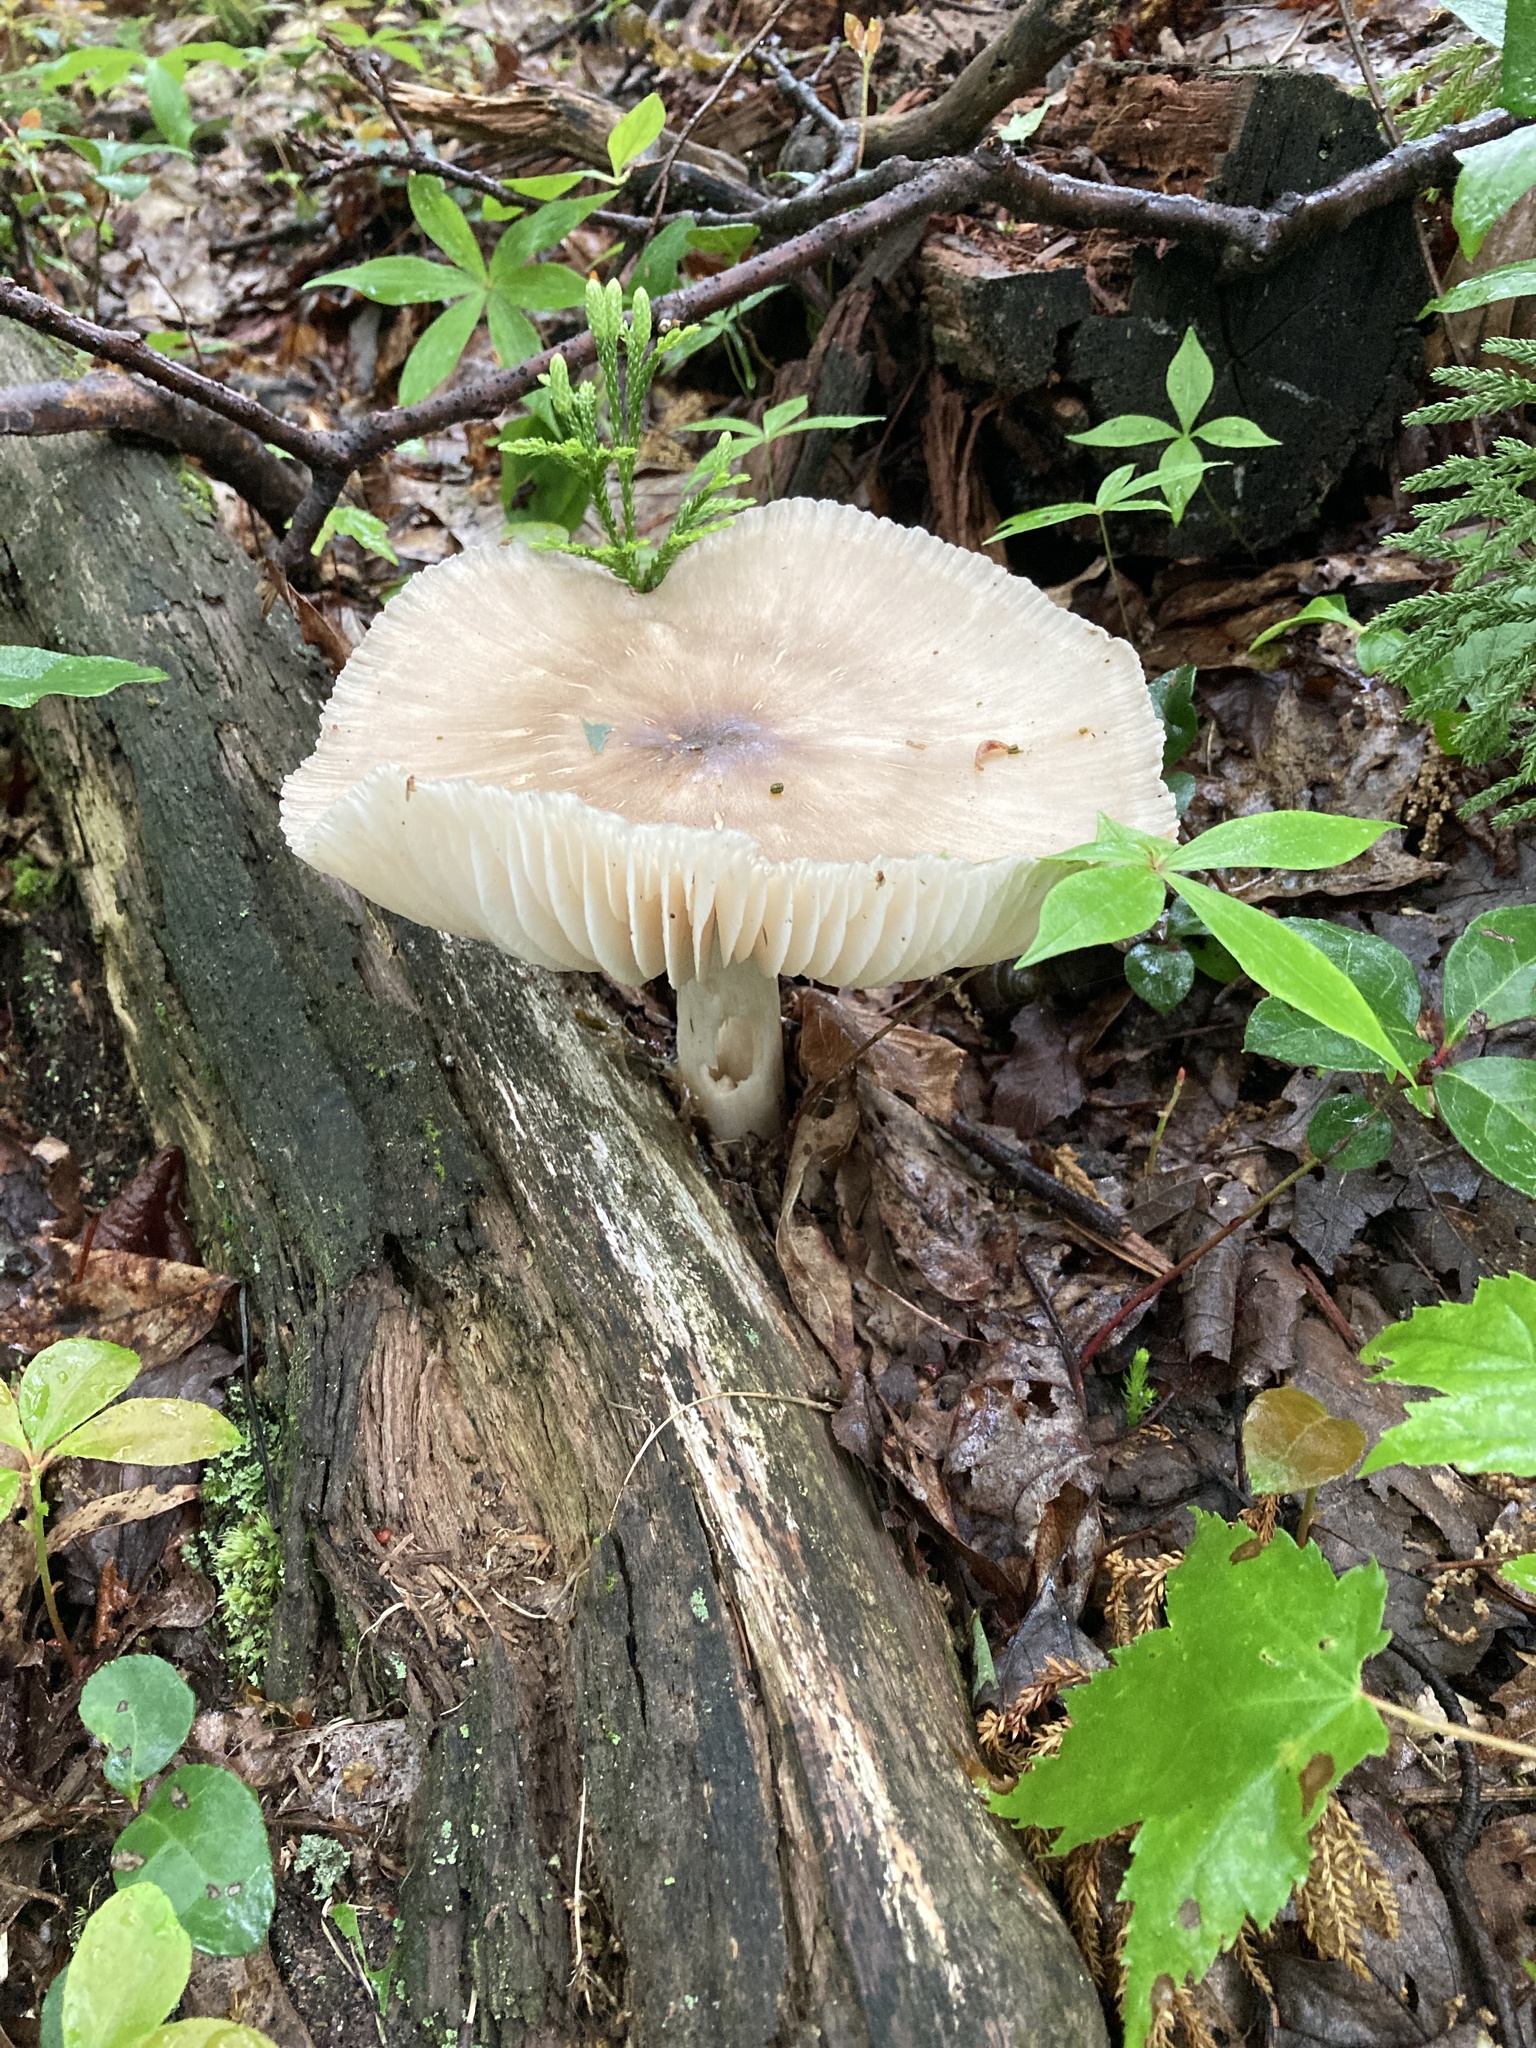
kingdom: Fungi
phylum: Basidiomycota
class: Agaricomycetes
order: Agaricales
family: Tricholomataceae
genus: Megacollybia
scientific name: Megacollybia rodmanii
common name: Eastern american platterful mushroom
